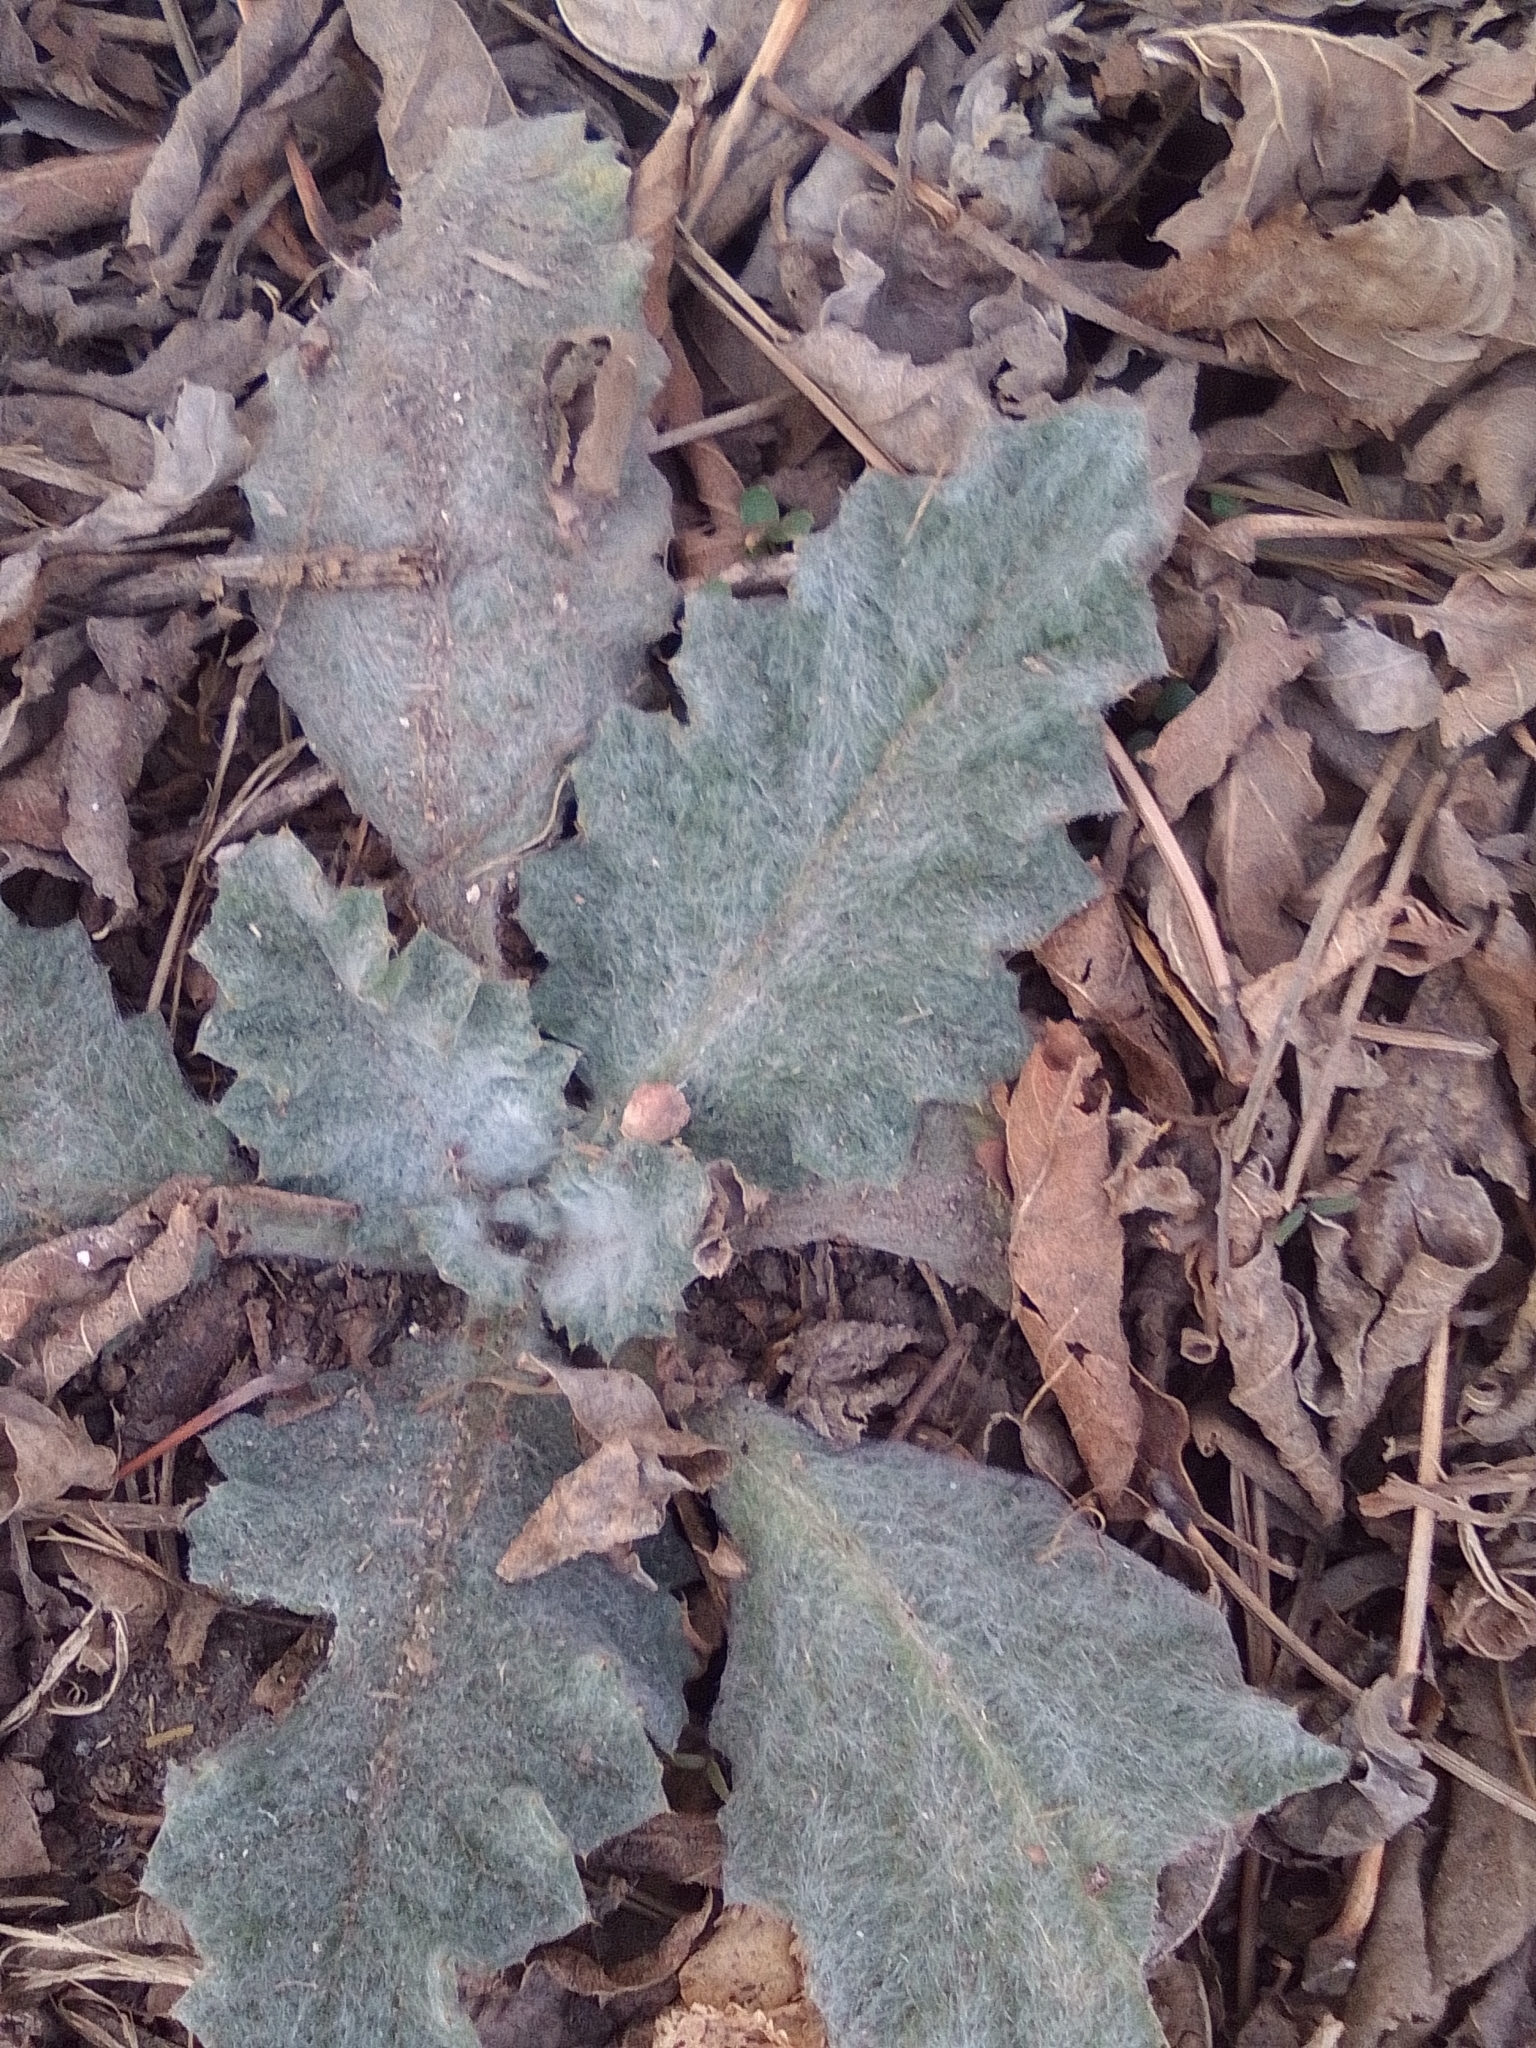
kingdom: Plantae
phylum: Tracheophyta
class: Magnoliopsida
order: Asterales
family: Asteraceae
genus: Onopordum
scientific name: Onopordum acanthium
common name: Scotch thistle
